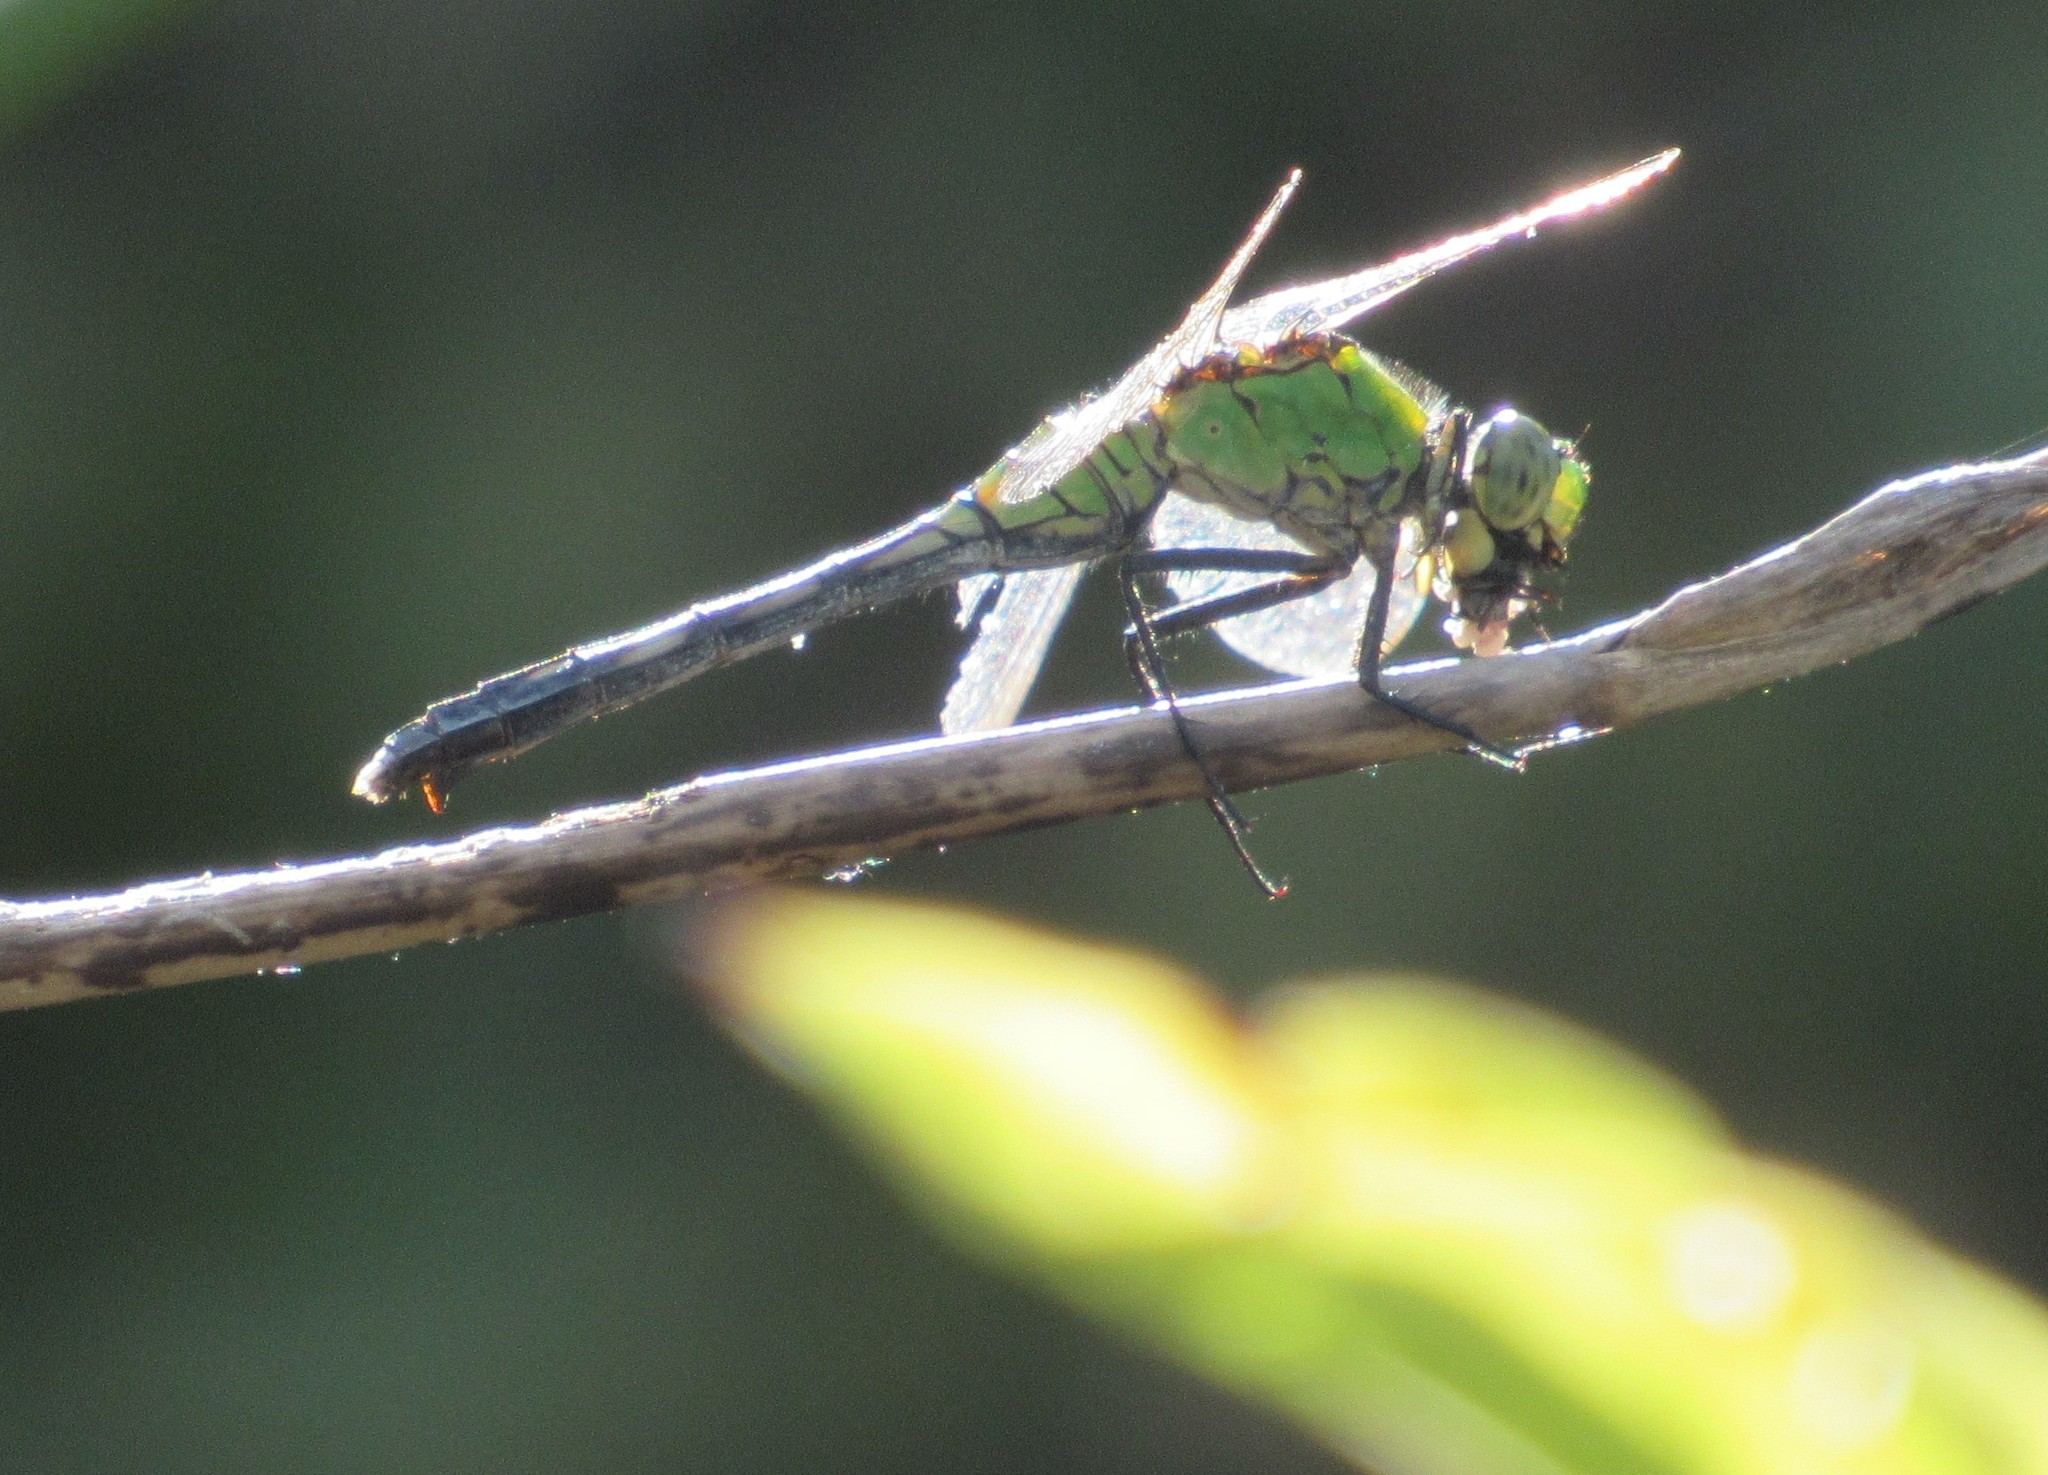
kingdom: Animalia
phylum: Arthropoda
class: Insecta
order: Odonata
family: Libellulidae
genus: Erythemis
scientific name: Erythemis simplicicollis
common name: Eastern pondhawk
